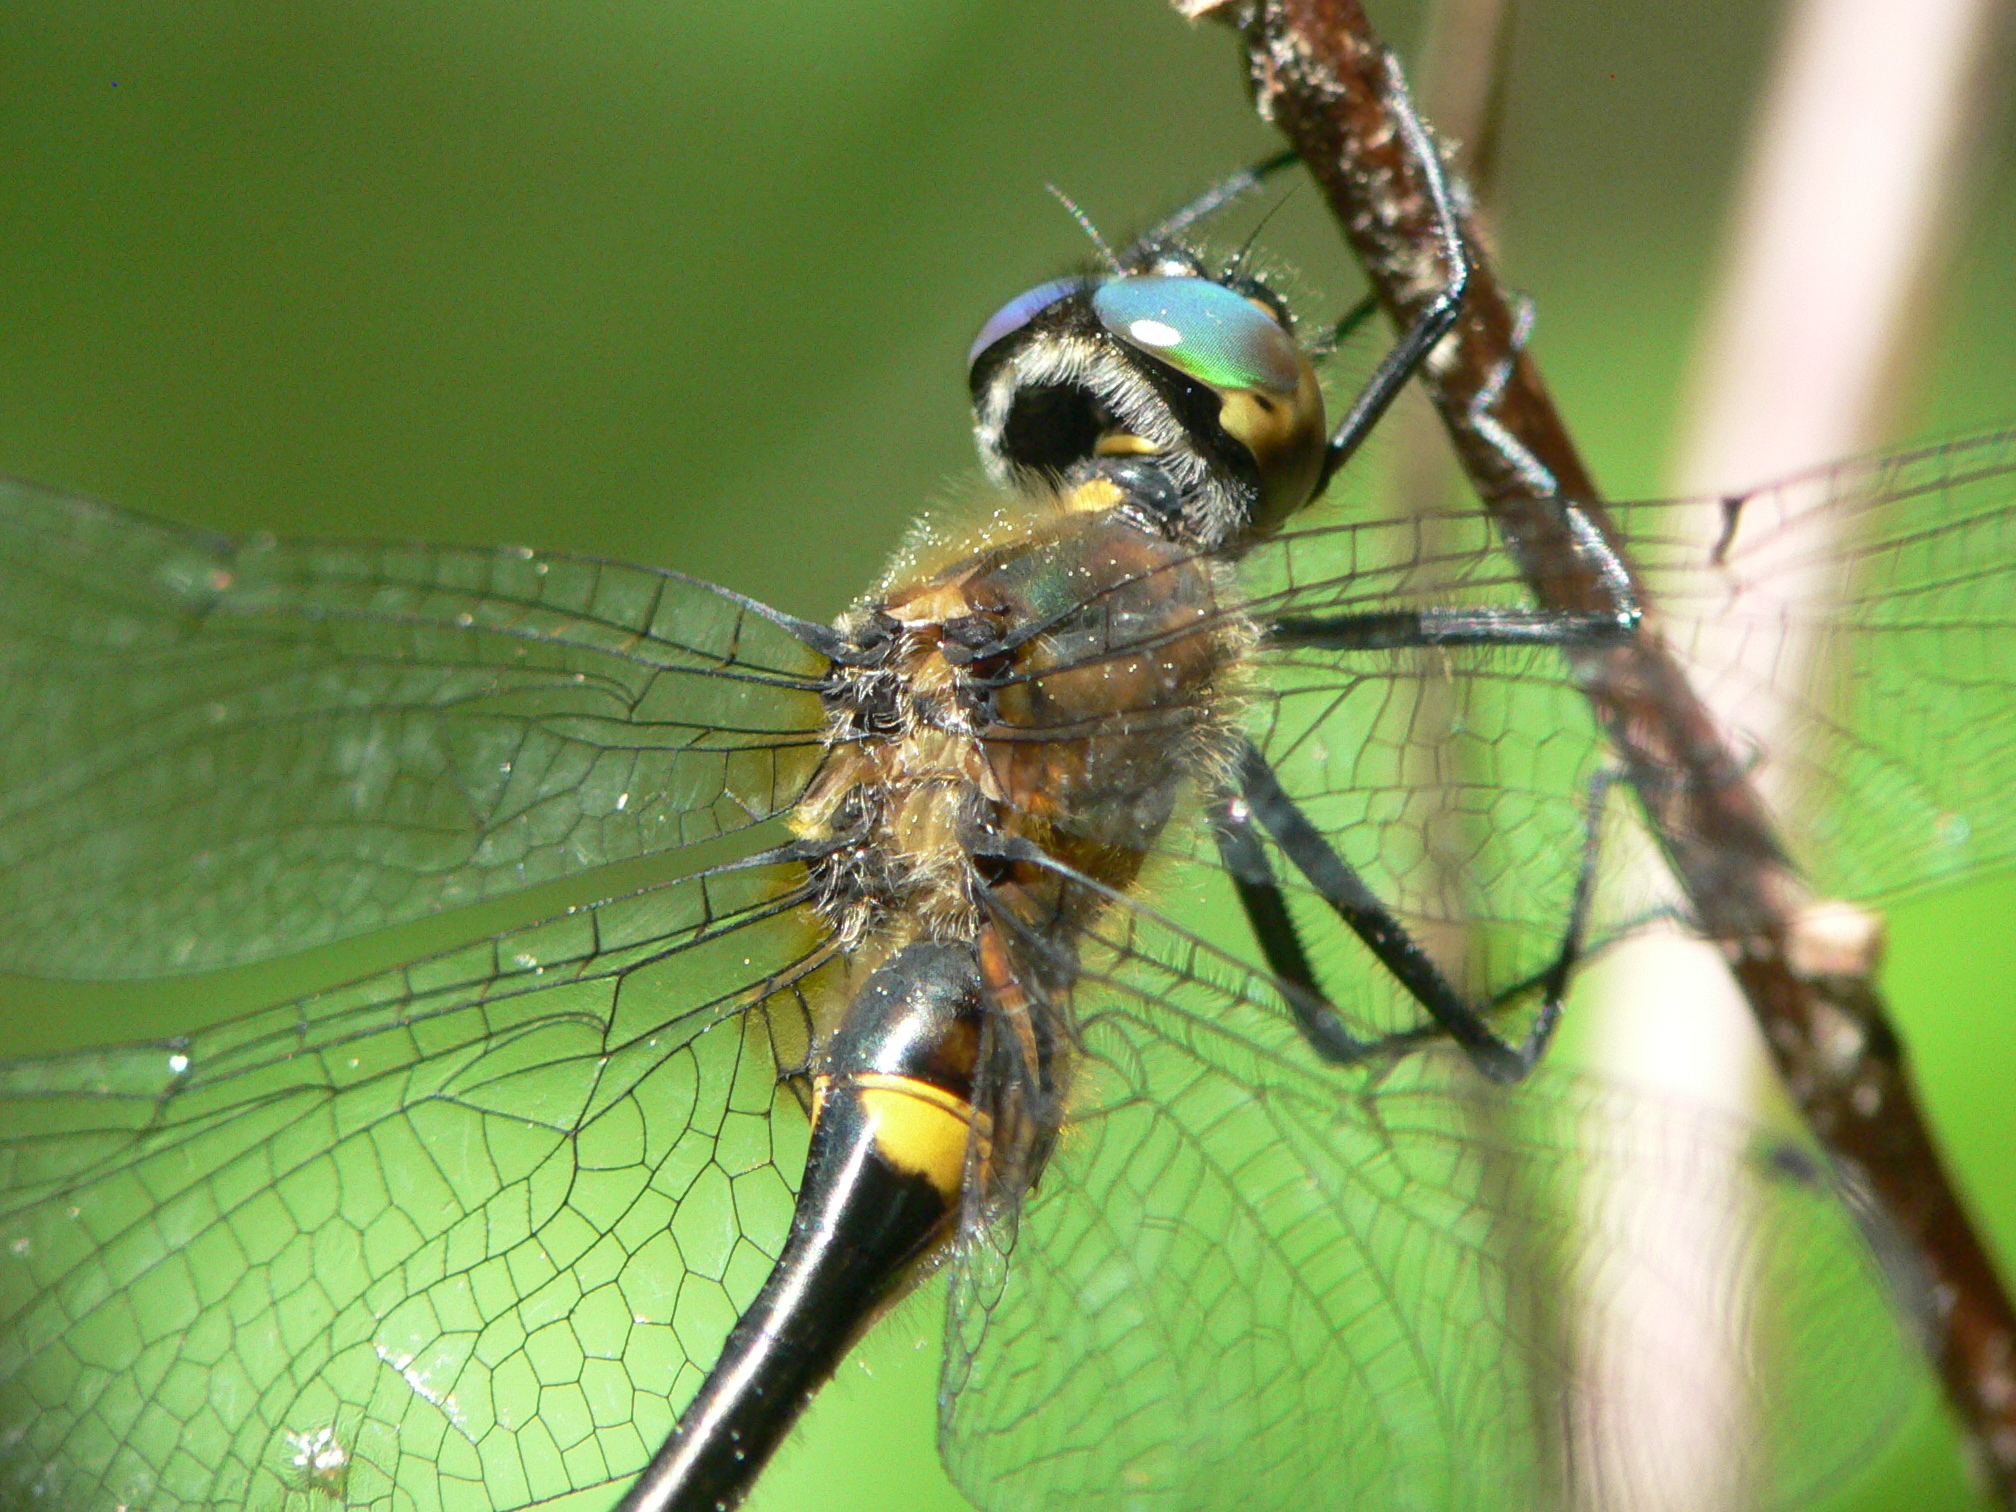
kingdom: Animalia
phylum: Arthropoda
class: Insecta
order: Odonata
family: Corduliidae
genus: Dorocordulia
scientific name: Dorocordulia libera
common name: Racket-tailed emerald
